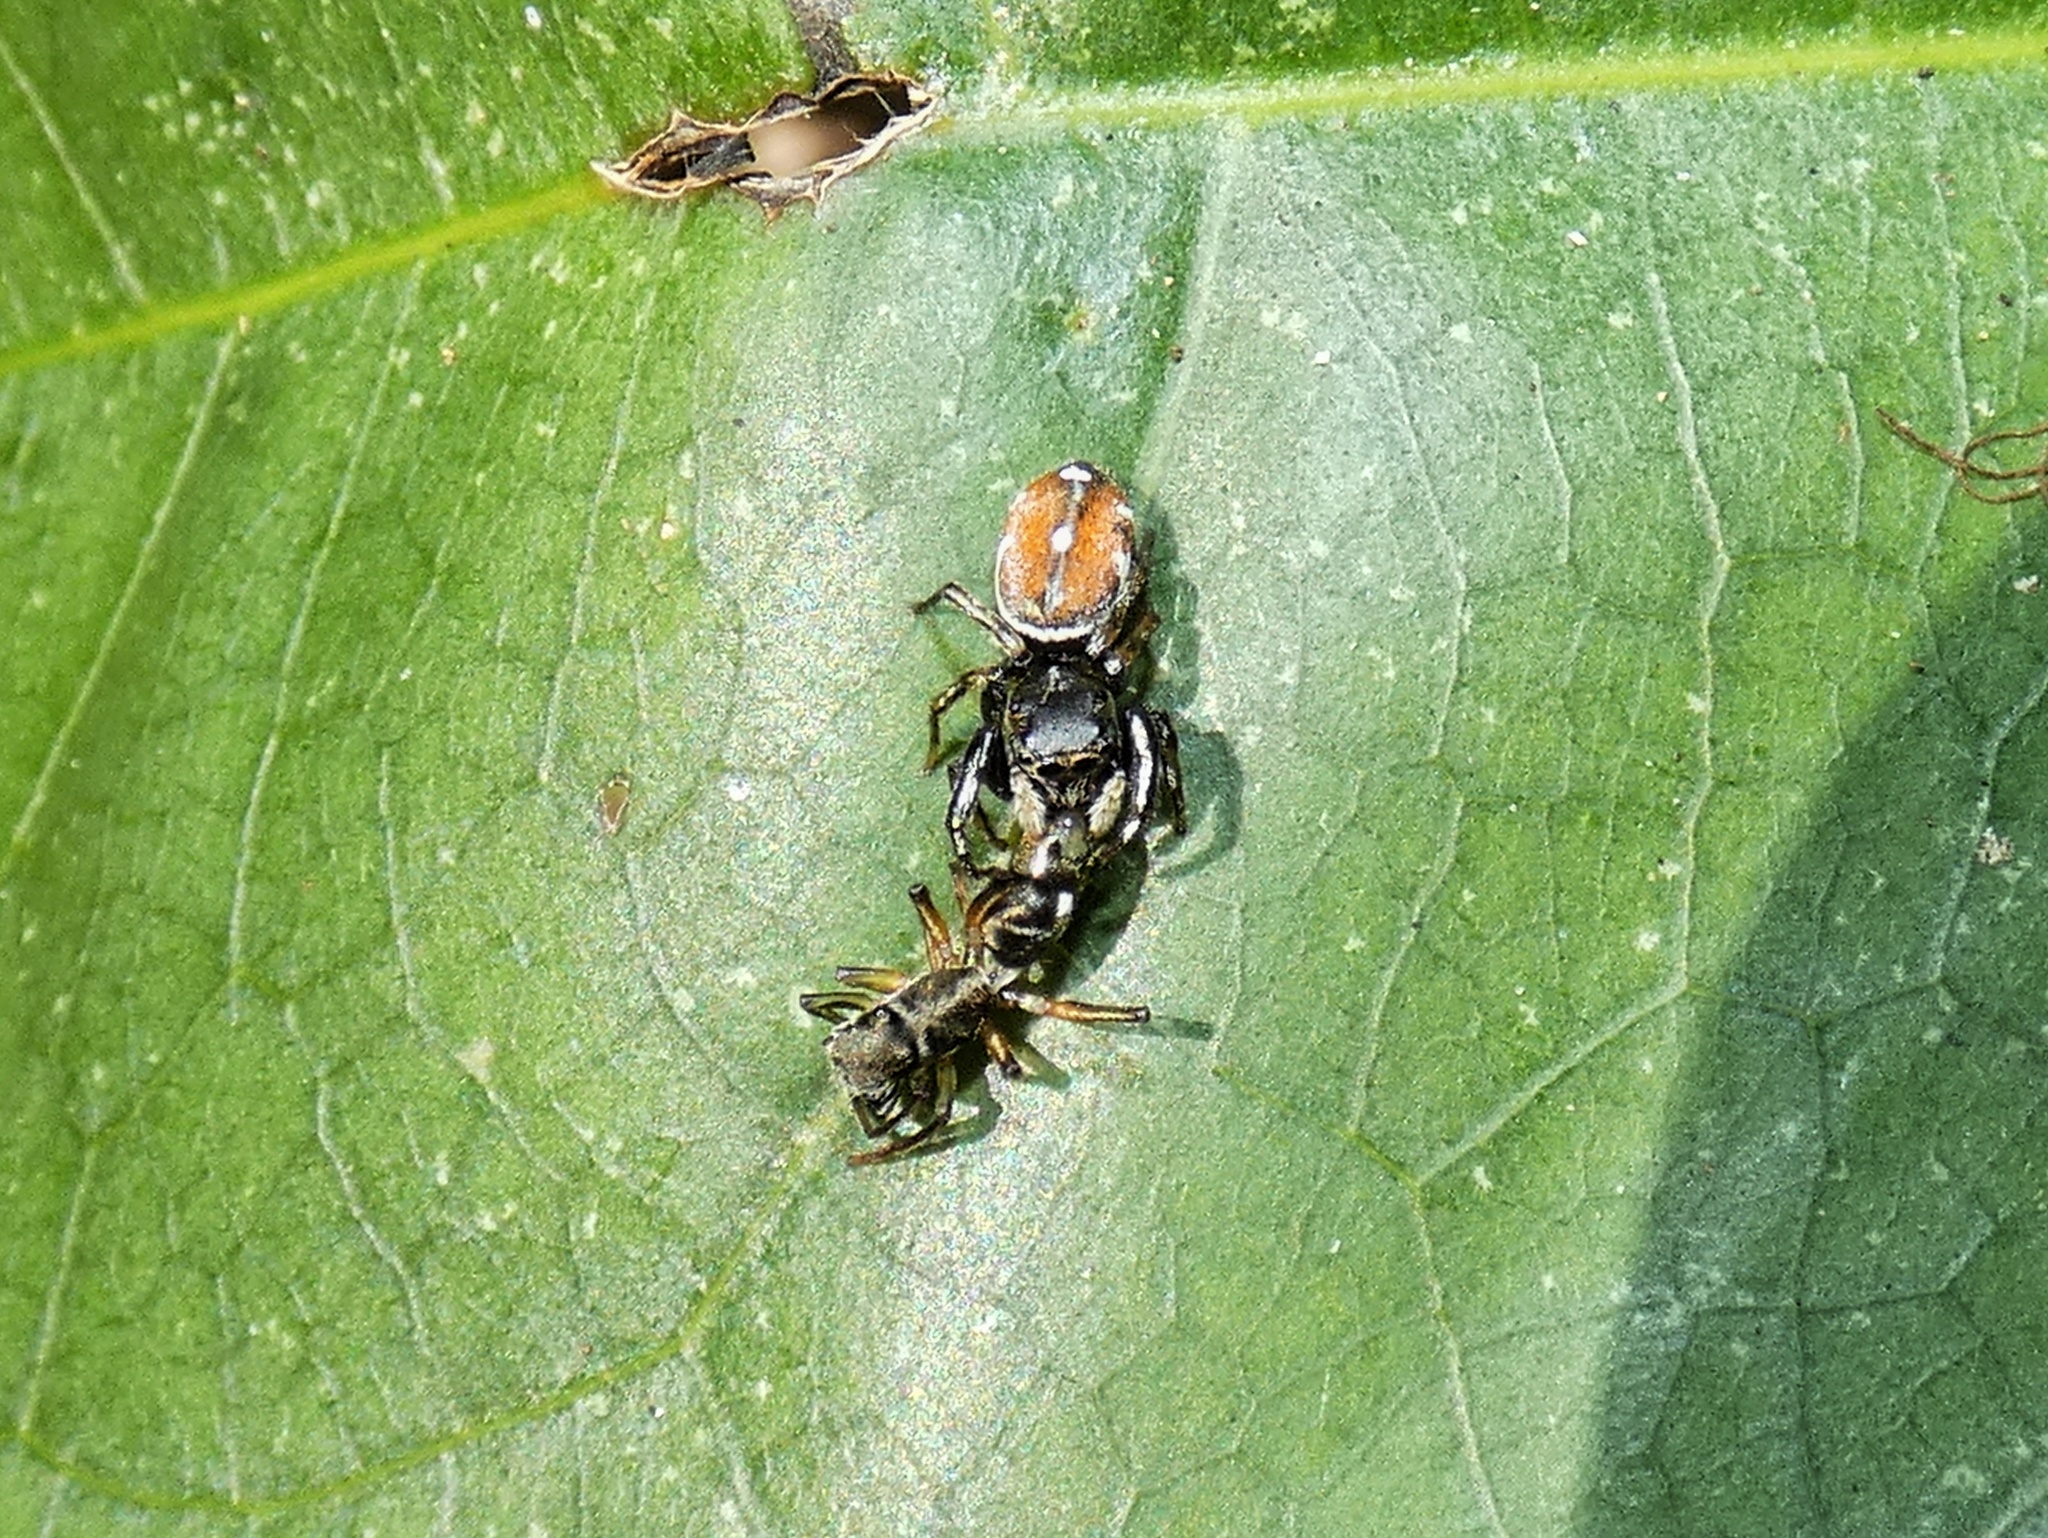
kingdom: Animalia
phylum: Arthropoda
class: Arachnida
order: Araneae
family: Salticidae
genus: Pachomius
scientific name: Pachomius dybowskii
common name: Jumping spiders
